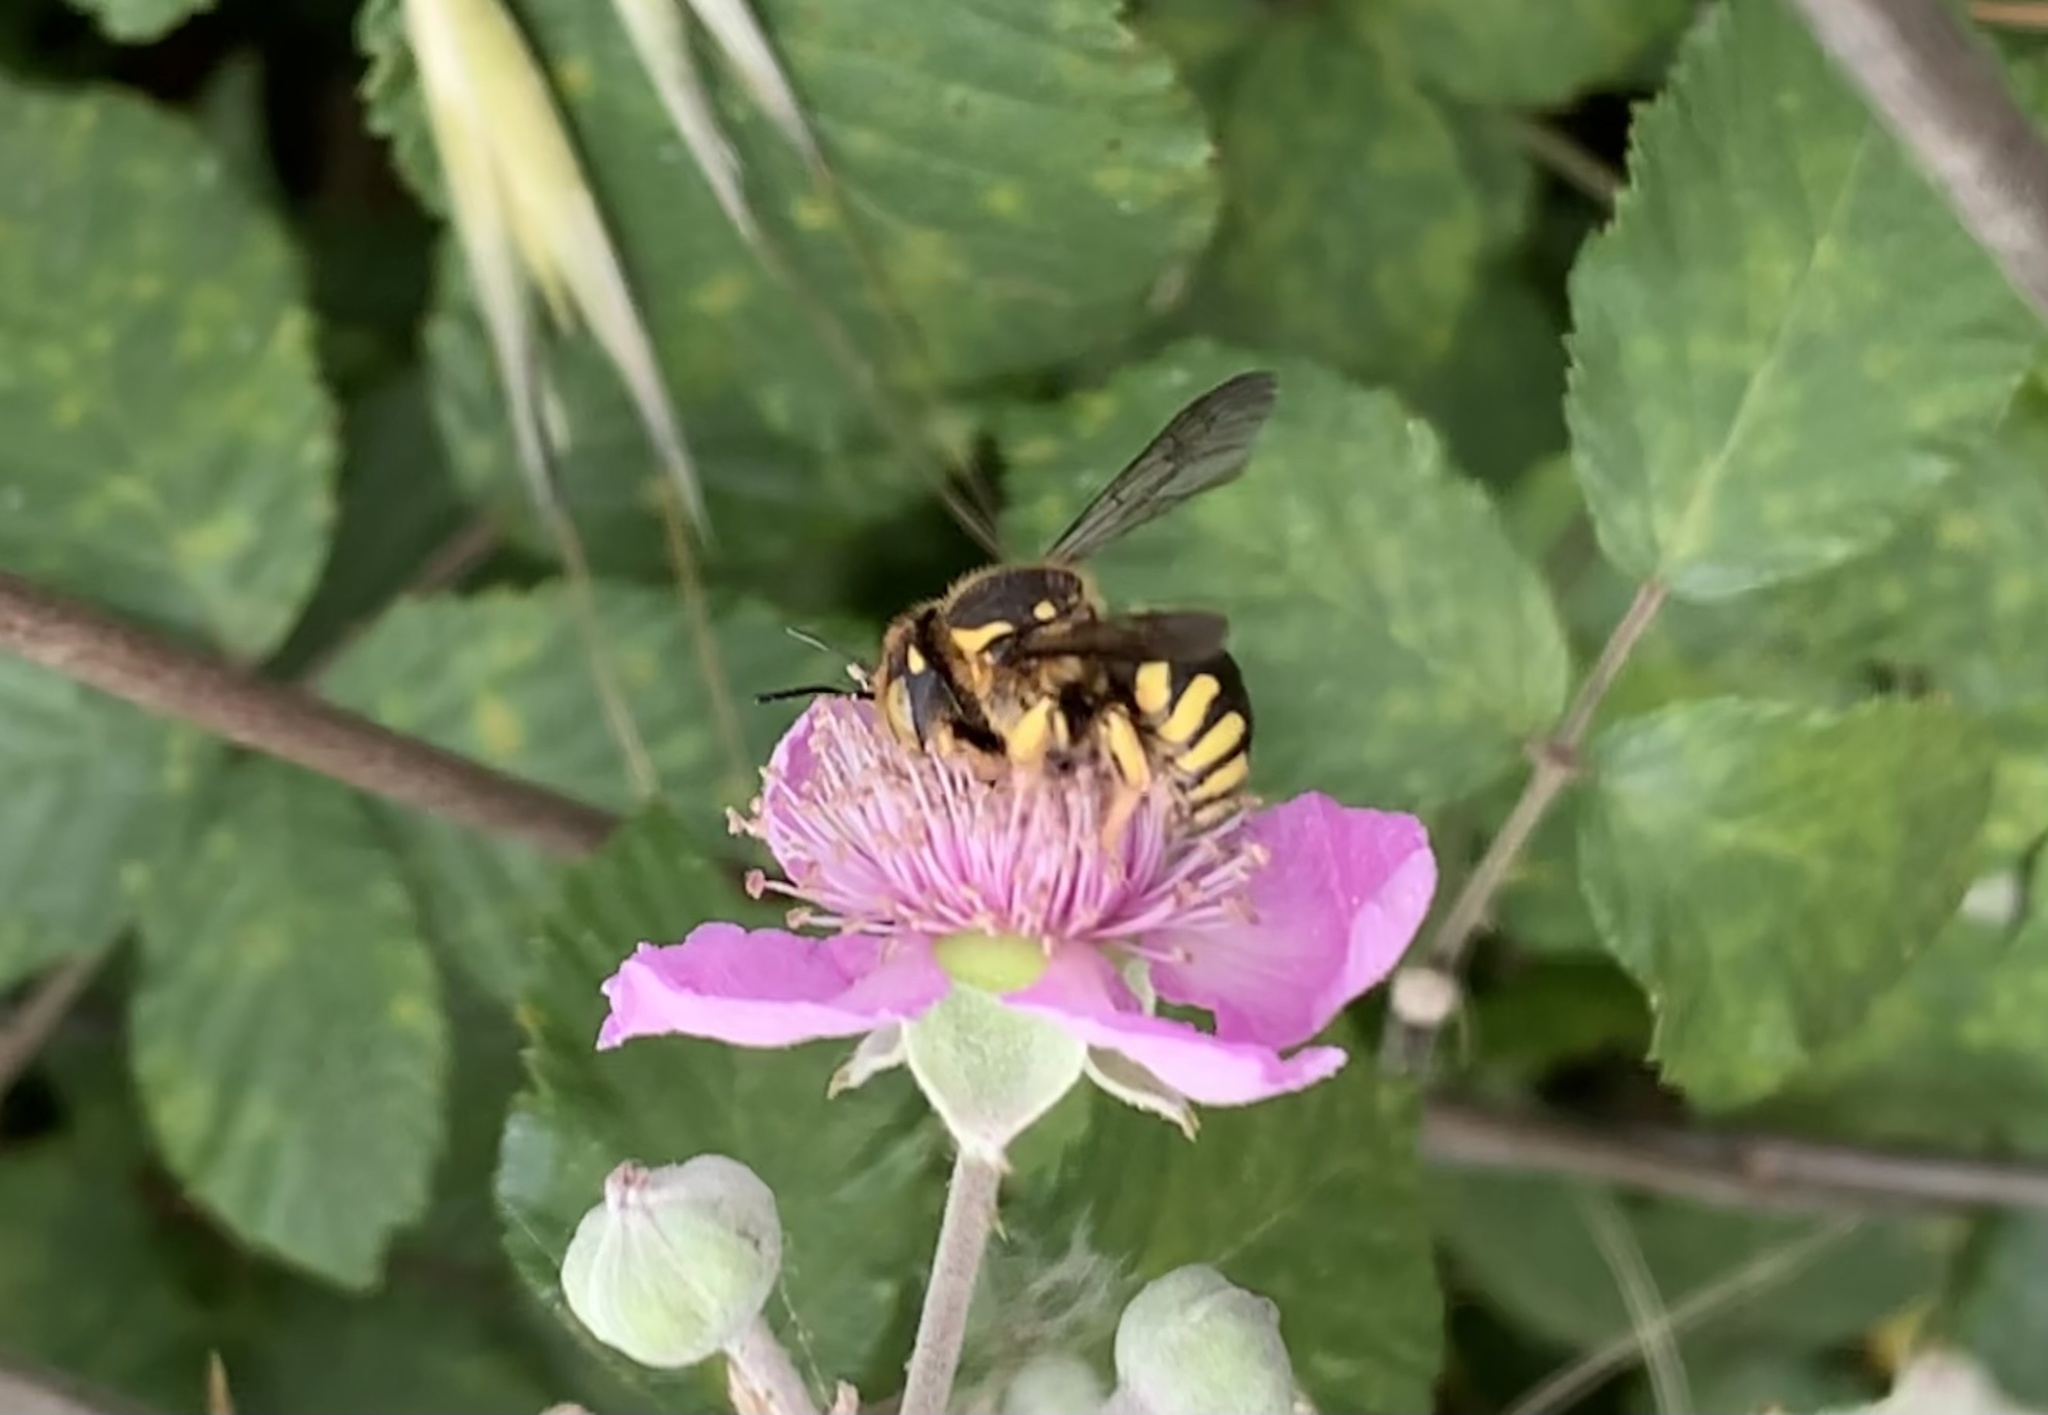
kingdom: Animalia
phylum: Arthropoda
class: Insecta
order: Hymenoptera
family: Megachilidae
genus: Anthidium
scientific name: Anthidium florentinum
